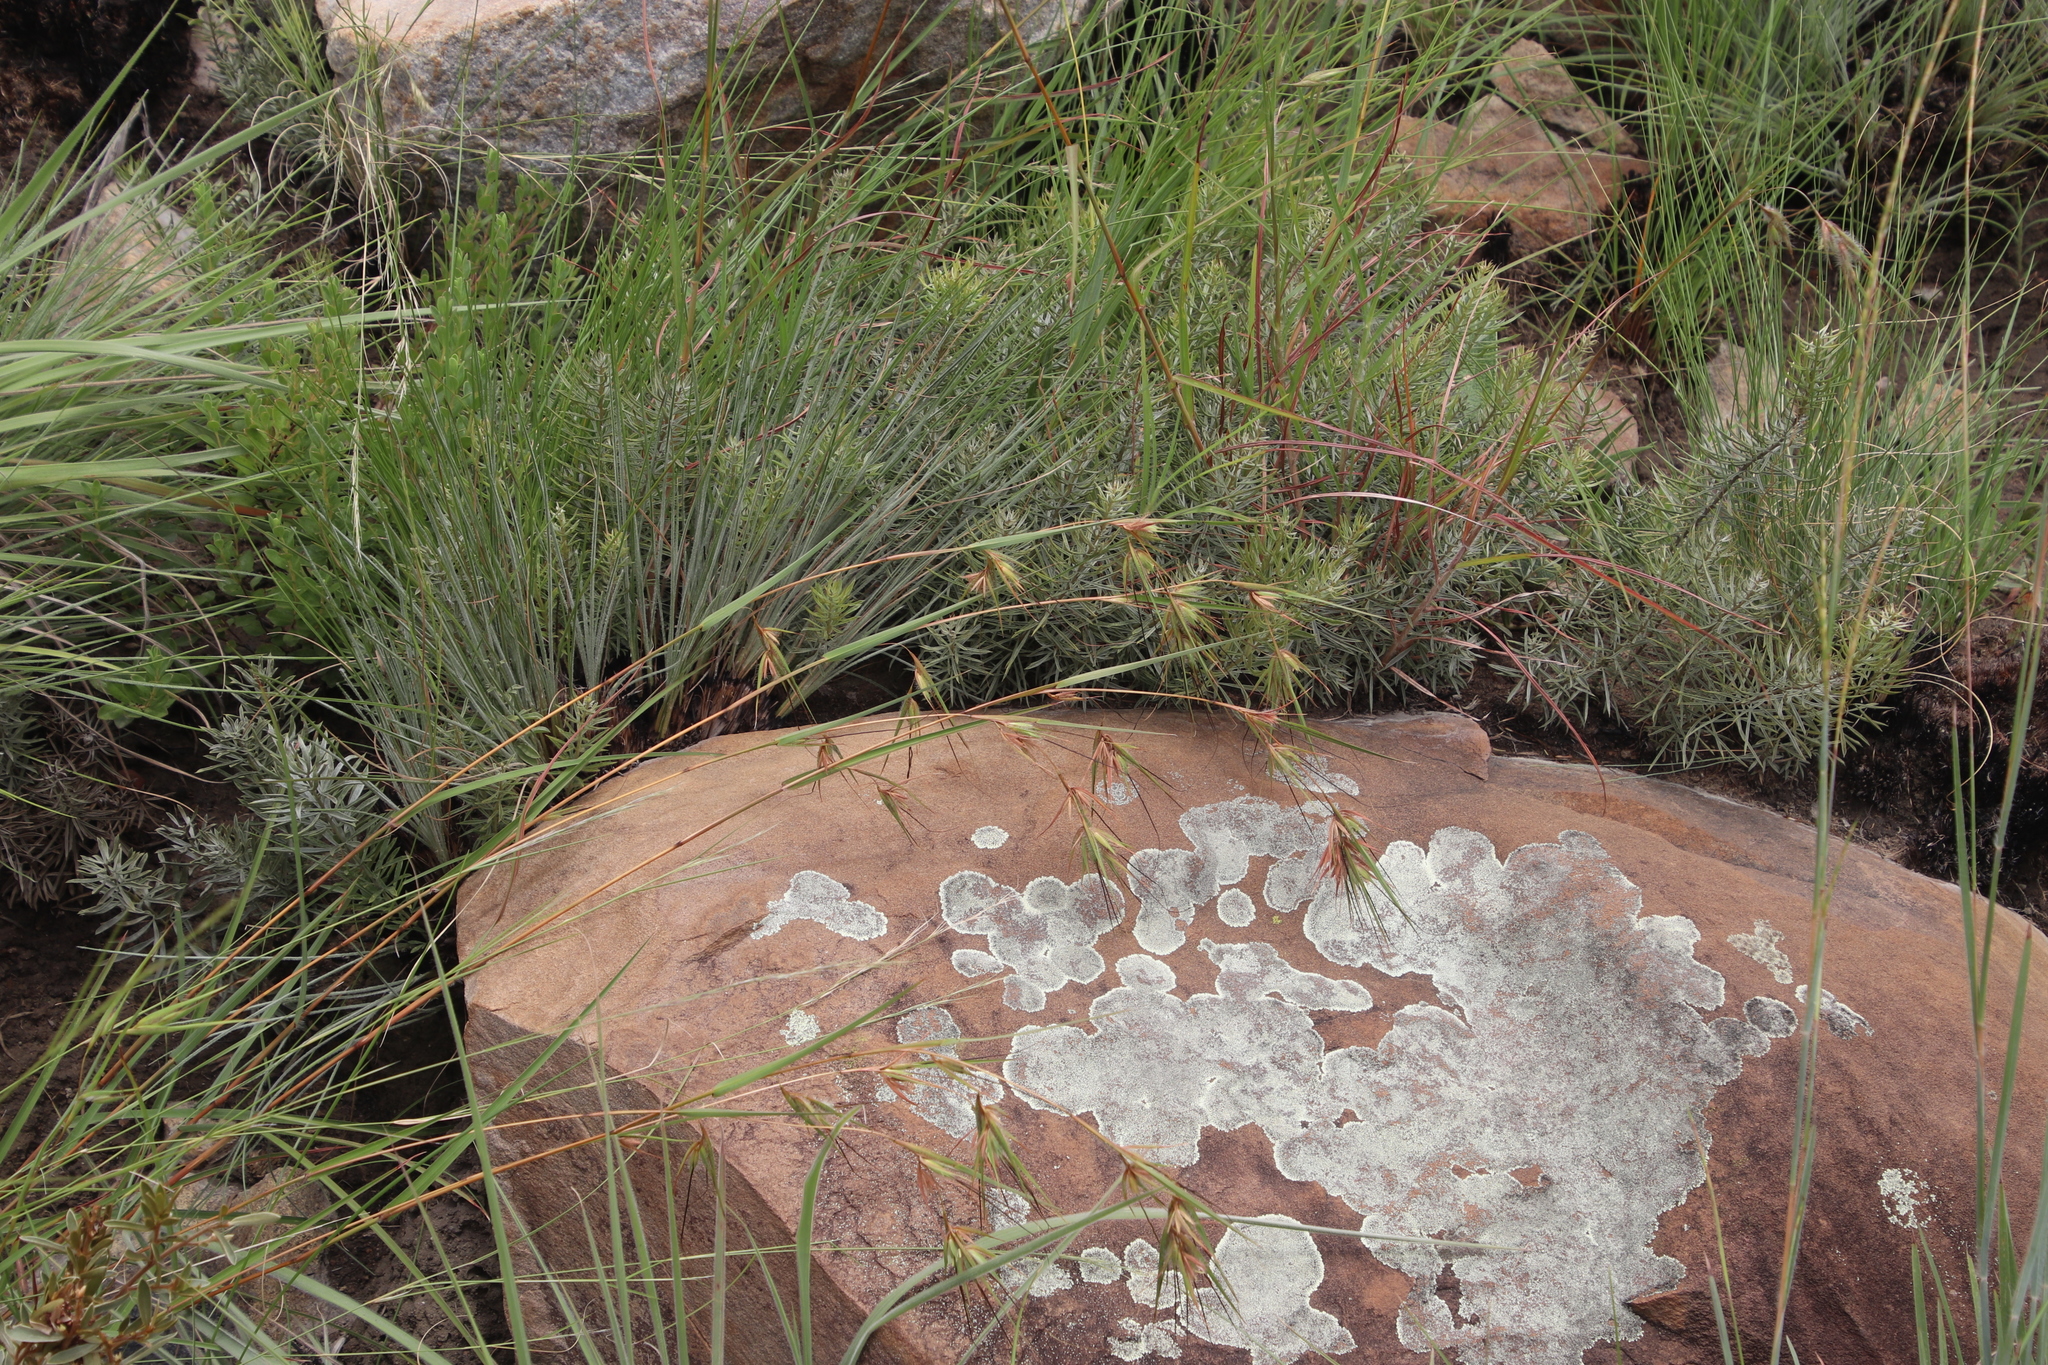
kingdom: Plantae
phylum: Tracheophyta
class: Liliopsida
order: Poales
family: Poaceae
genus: Themeda
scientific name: Themeda triandra
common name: Kangaroo grass
